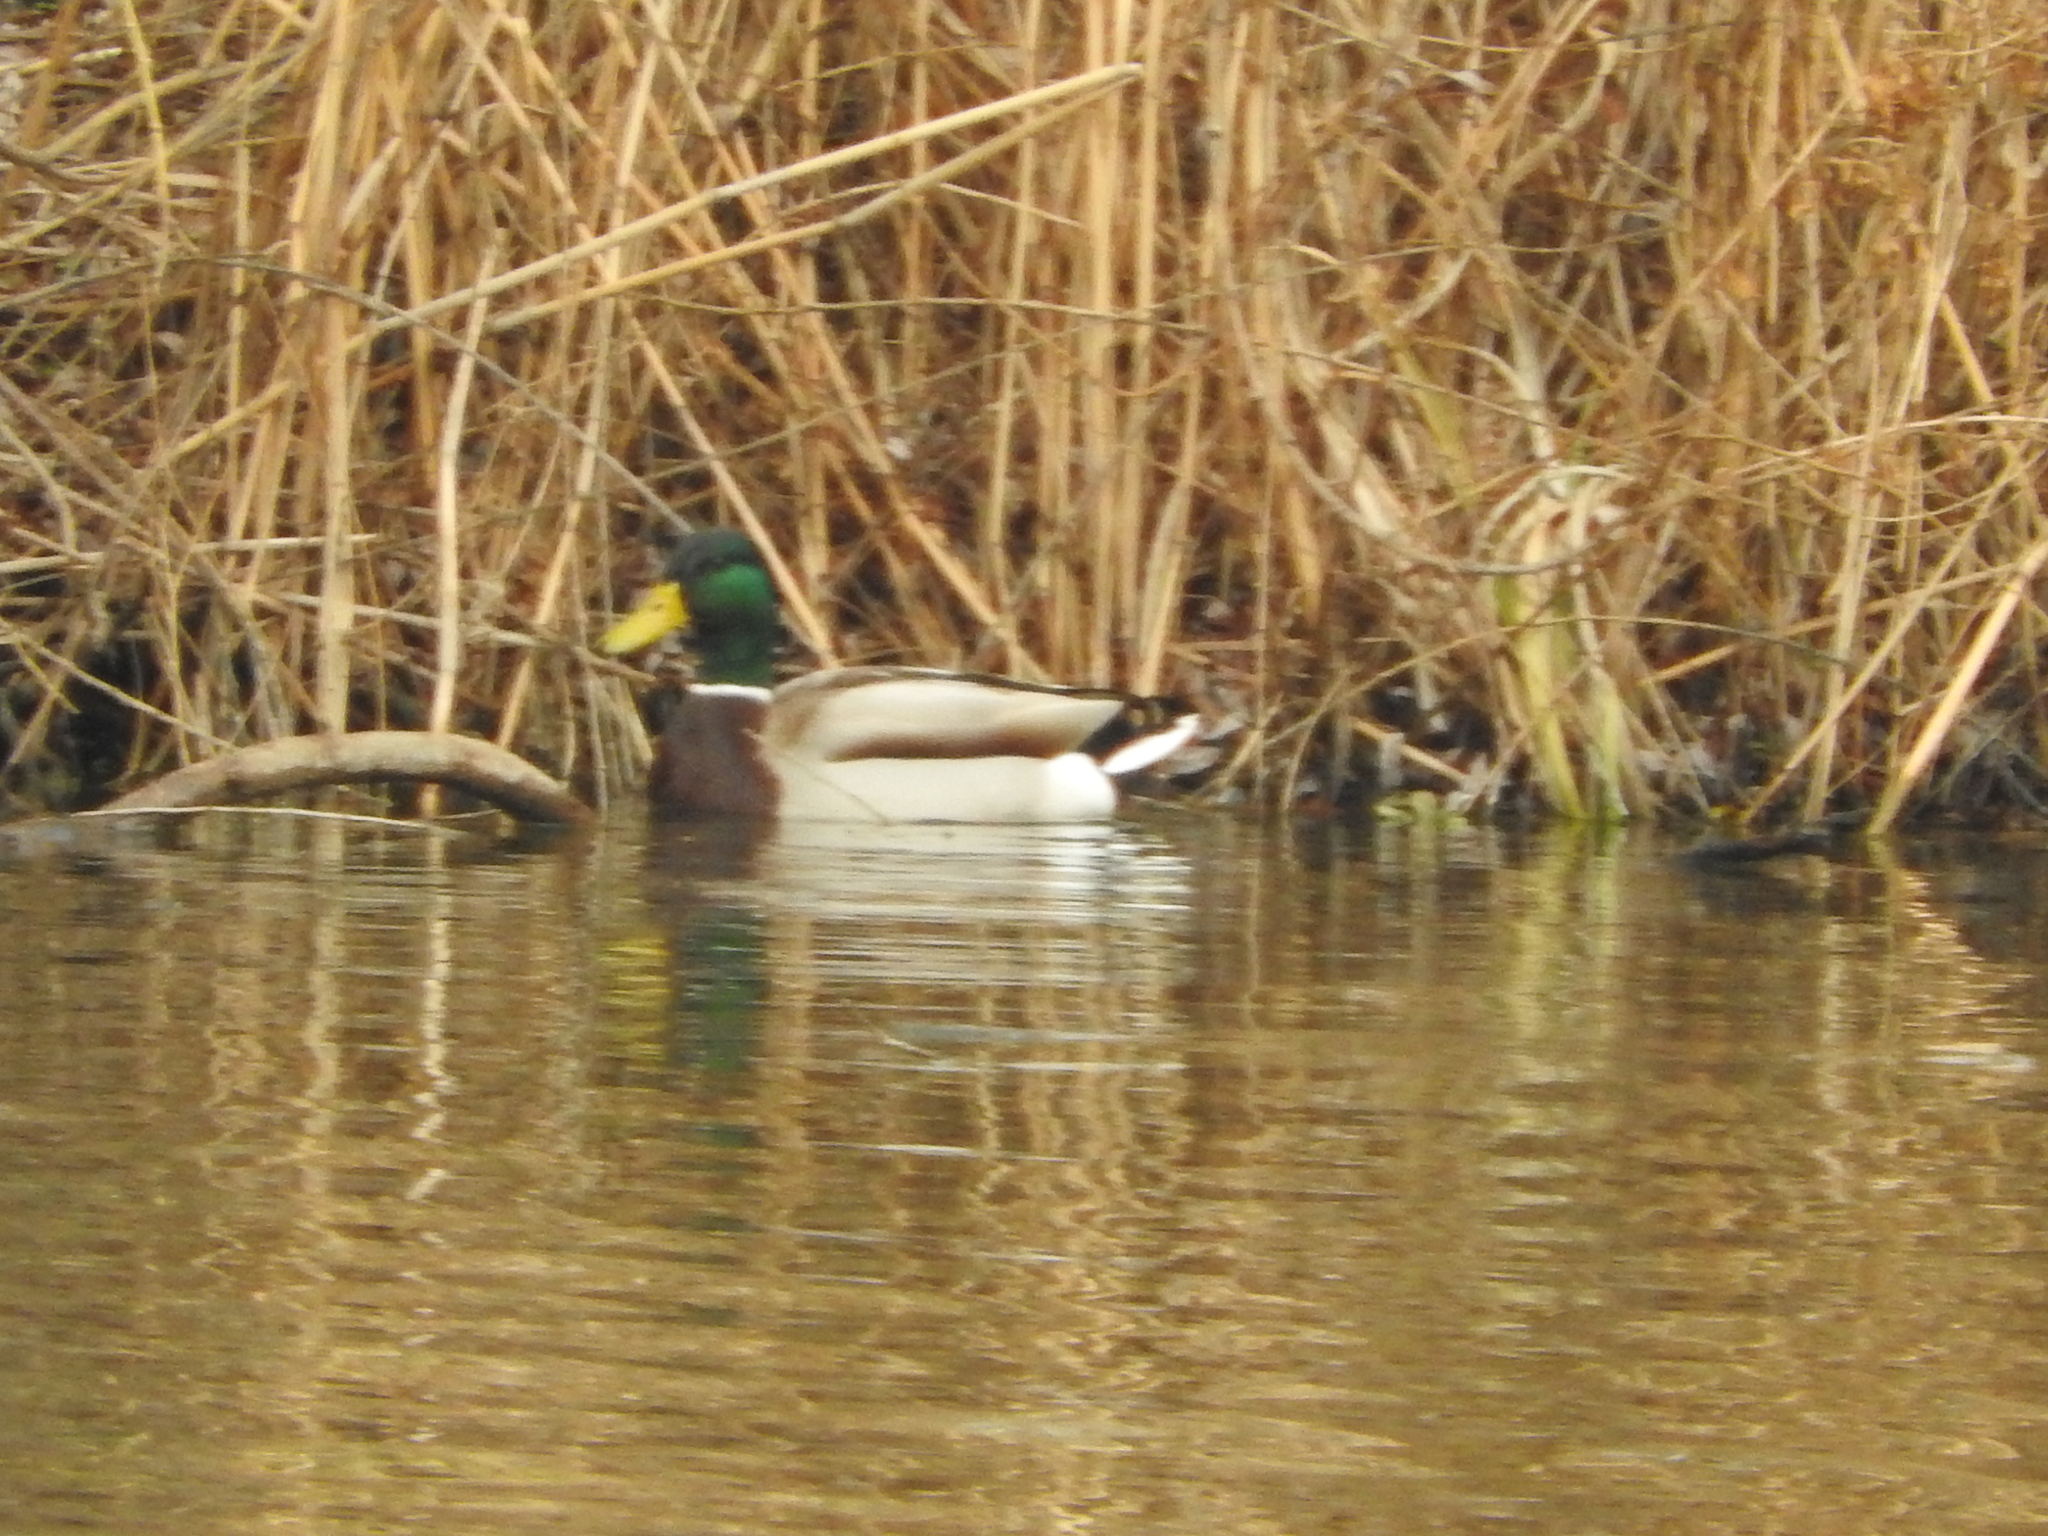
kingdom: Animalia
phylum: Chordata
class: Aves
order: Anseriformes
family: Anatidae
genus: Anas
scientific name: Anas platyrhynchos
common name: Mallard
